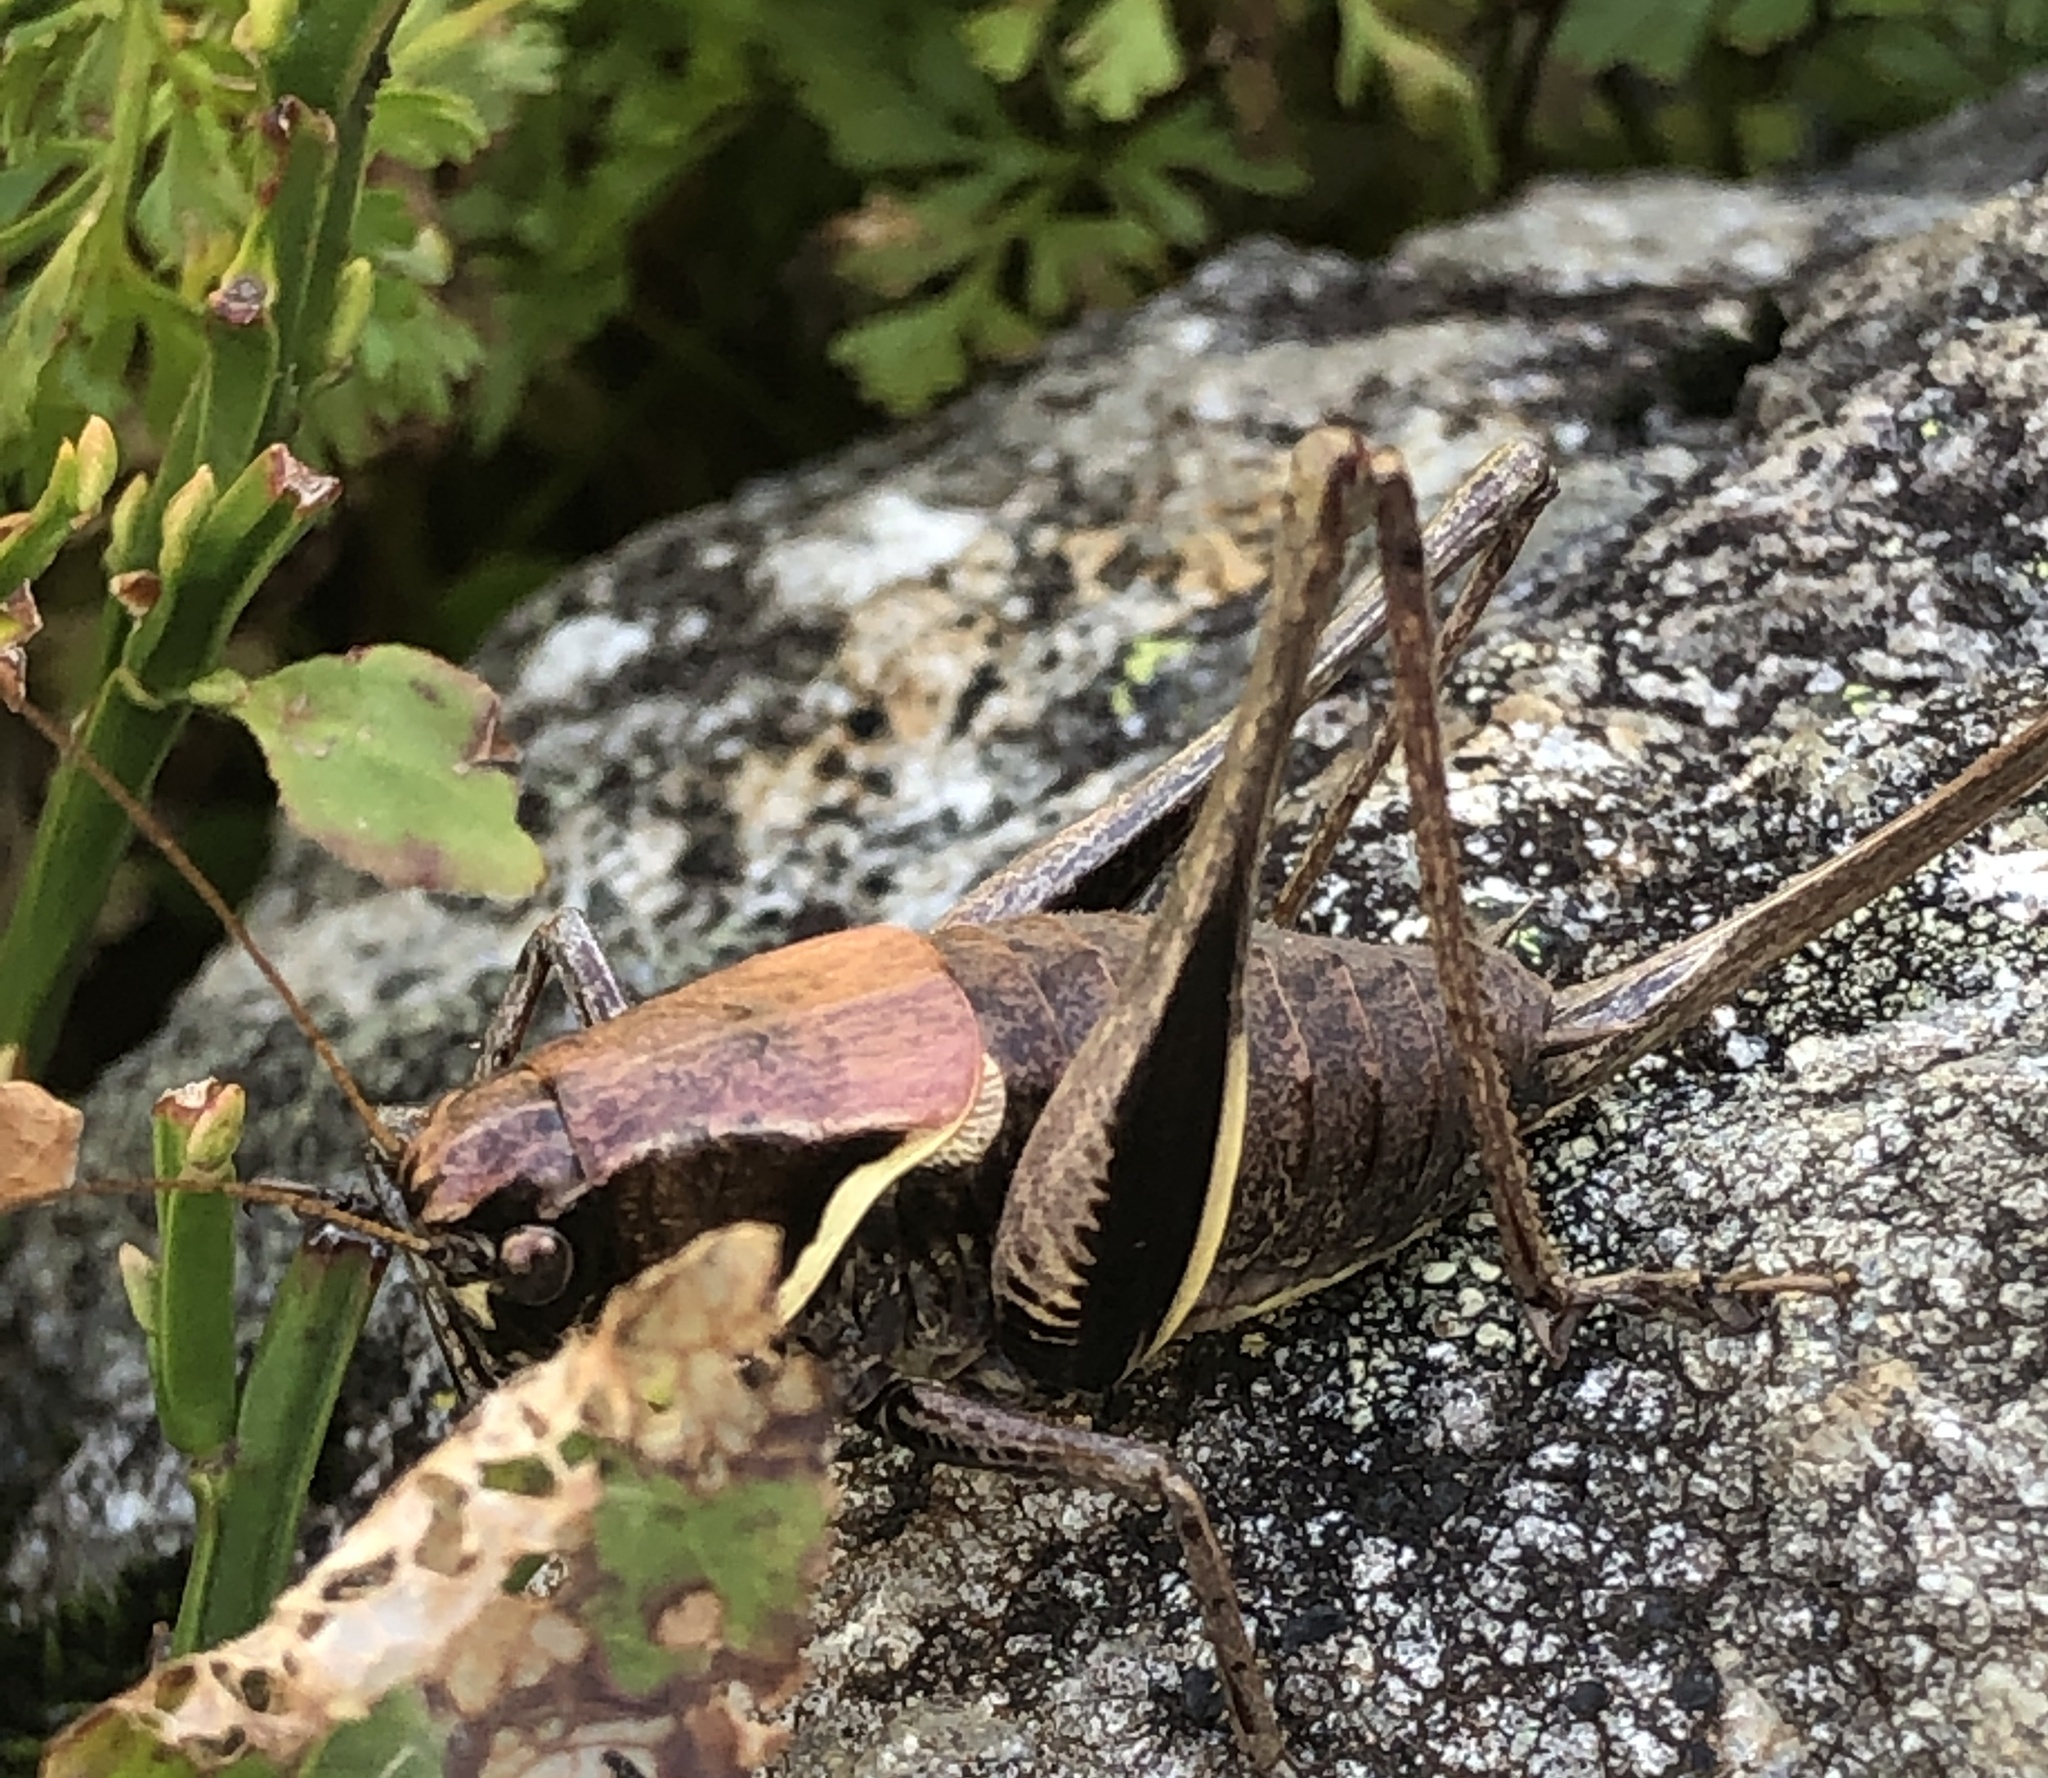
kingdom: Animalia
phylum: Arthropoda
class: Insecta
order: Orthoptera
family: Tettigoniidae
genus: Pholidoptera
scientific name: Pholidoptera aptera
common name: Alpine dark bush-cricket
